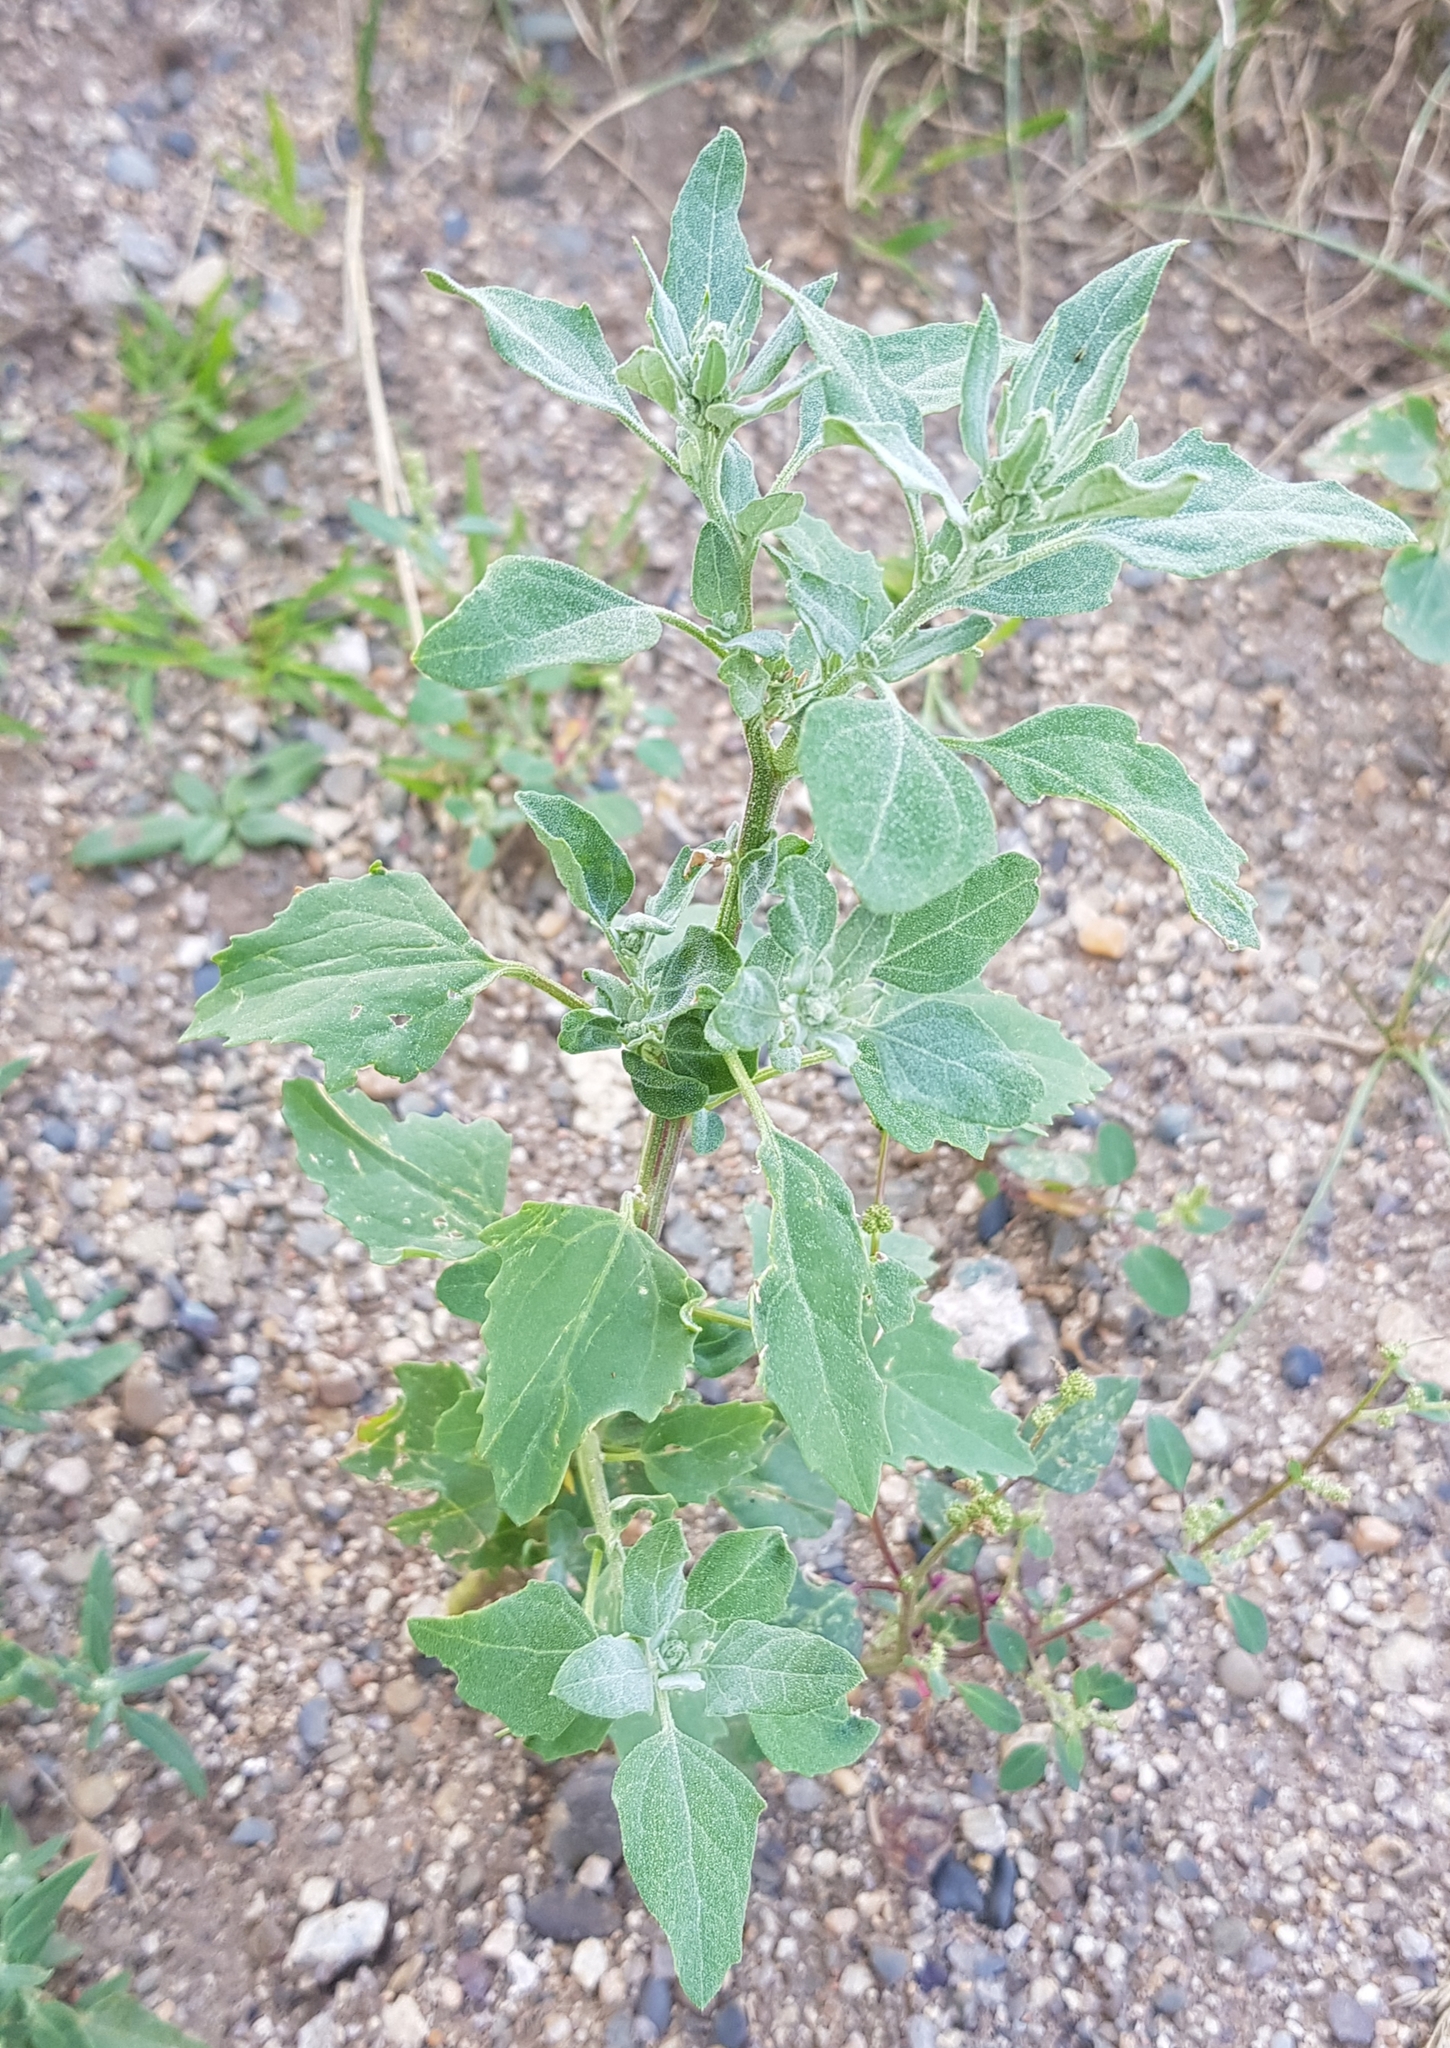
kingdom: Plantae
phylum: Tracheophyta
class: Magnoliopsida
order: Caryophyllales
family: Amaranthaceae
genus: Chenopodium
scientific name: Chenopodium album
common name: Fat-hen
